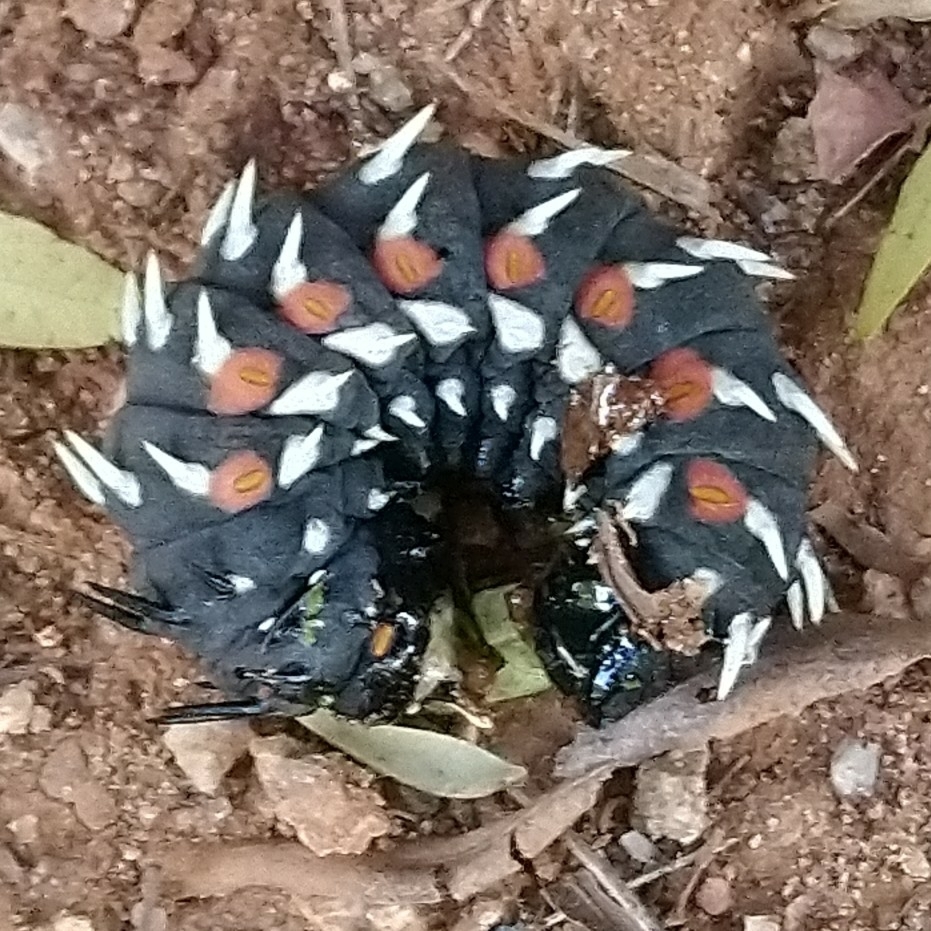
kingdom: Animalia
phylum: Arthropoda
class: Insecta
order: Lepidoptera
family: Saturniidae
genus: Bunaea
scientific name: Bunaea alcinoe
